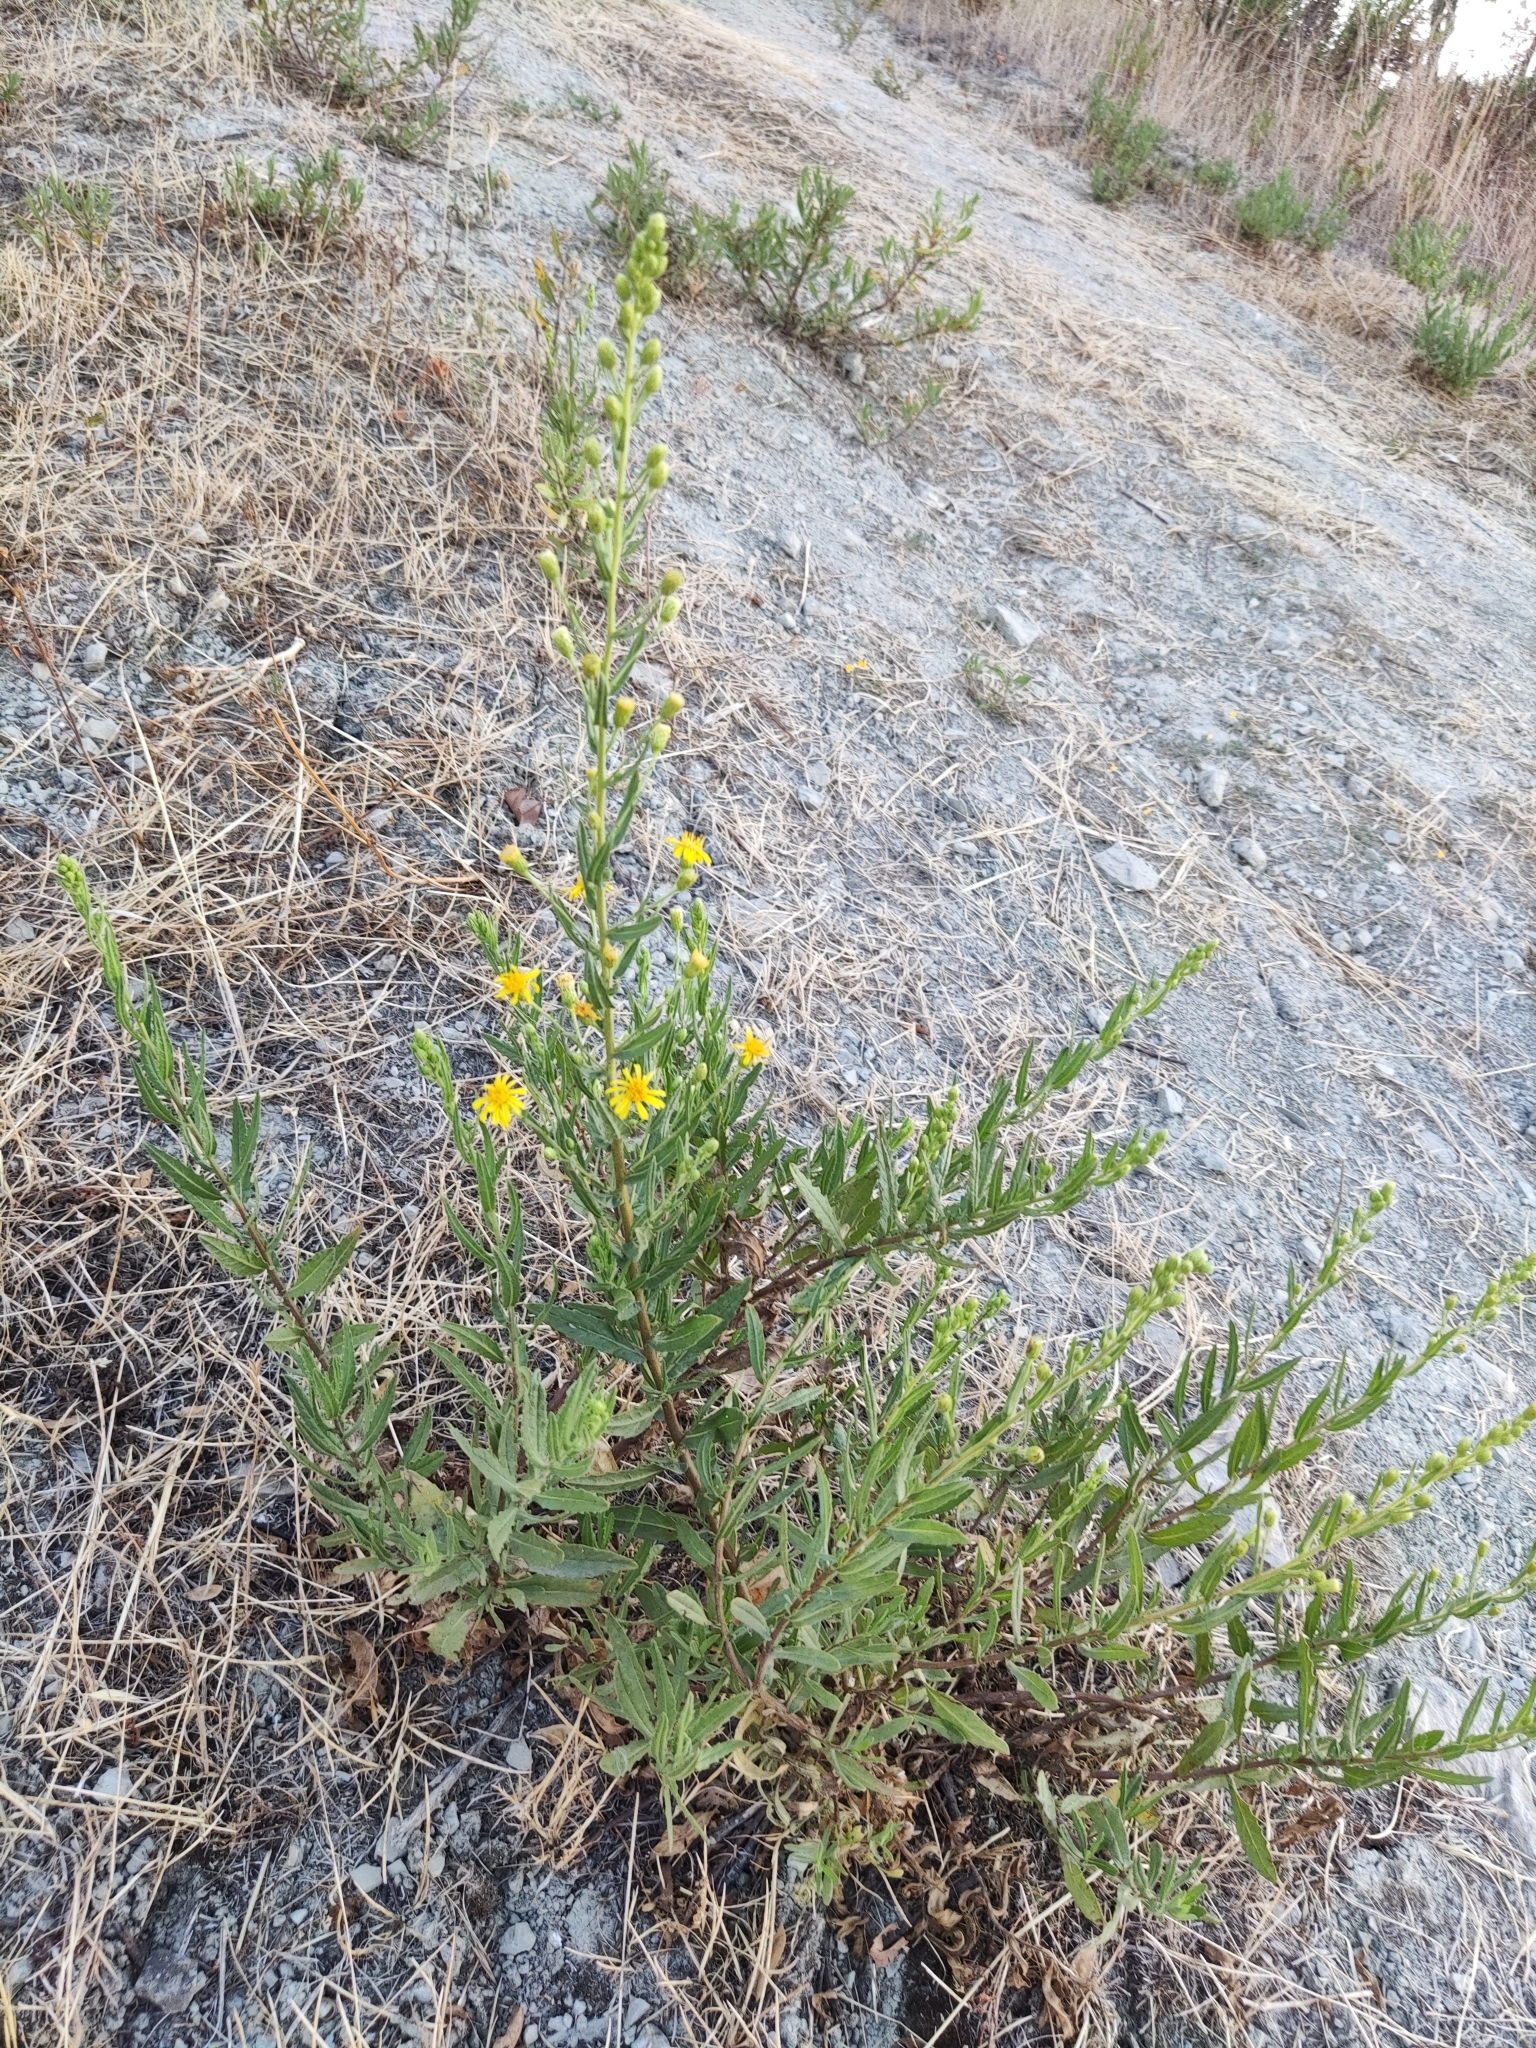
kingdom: Plantae
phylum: Tracheophyta
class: Magnoliopsida
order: Asterales
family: Asteraceae
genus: Dittrichia
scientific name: Dittrichia viscosa
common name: Woody fleabane
